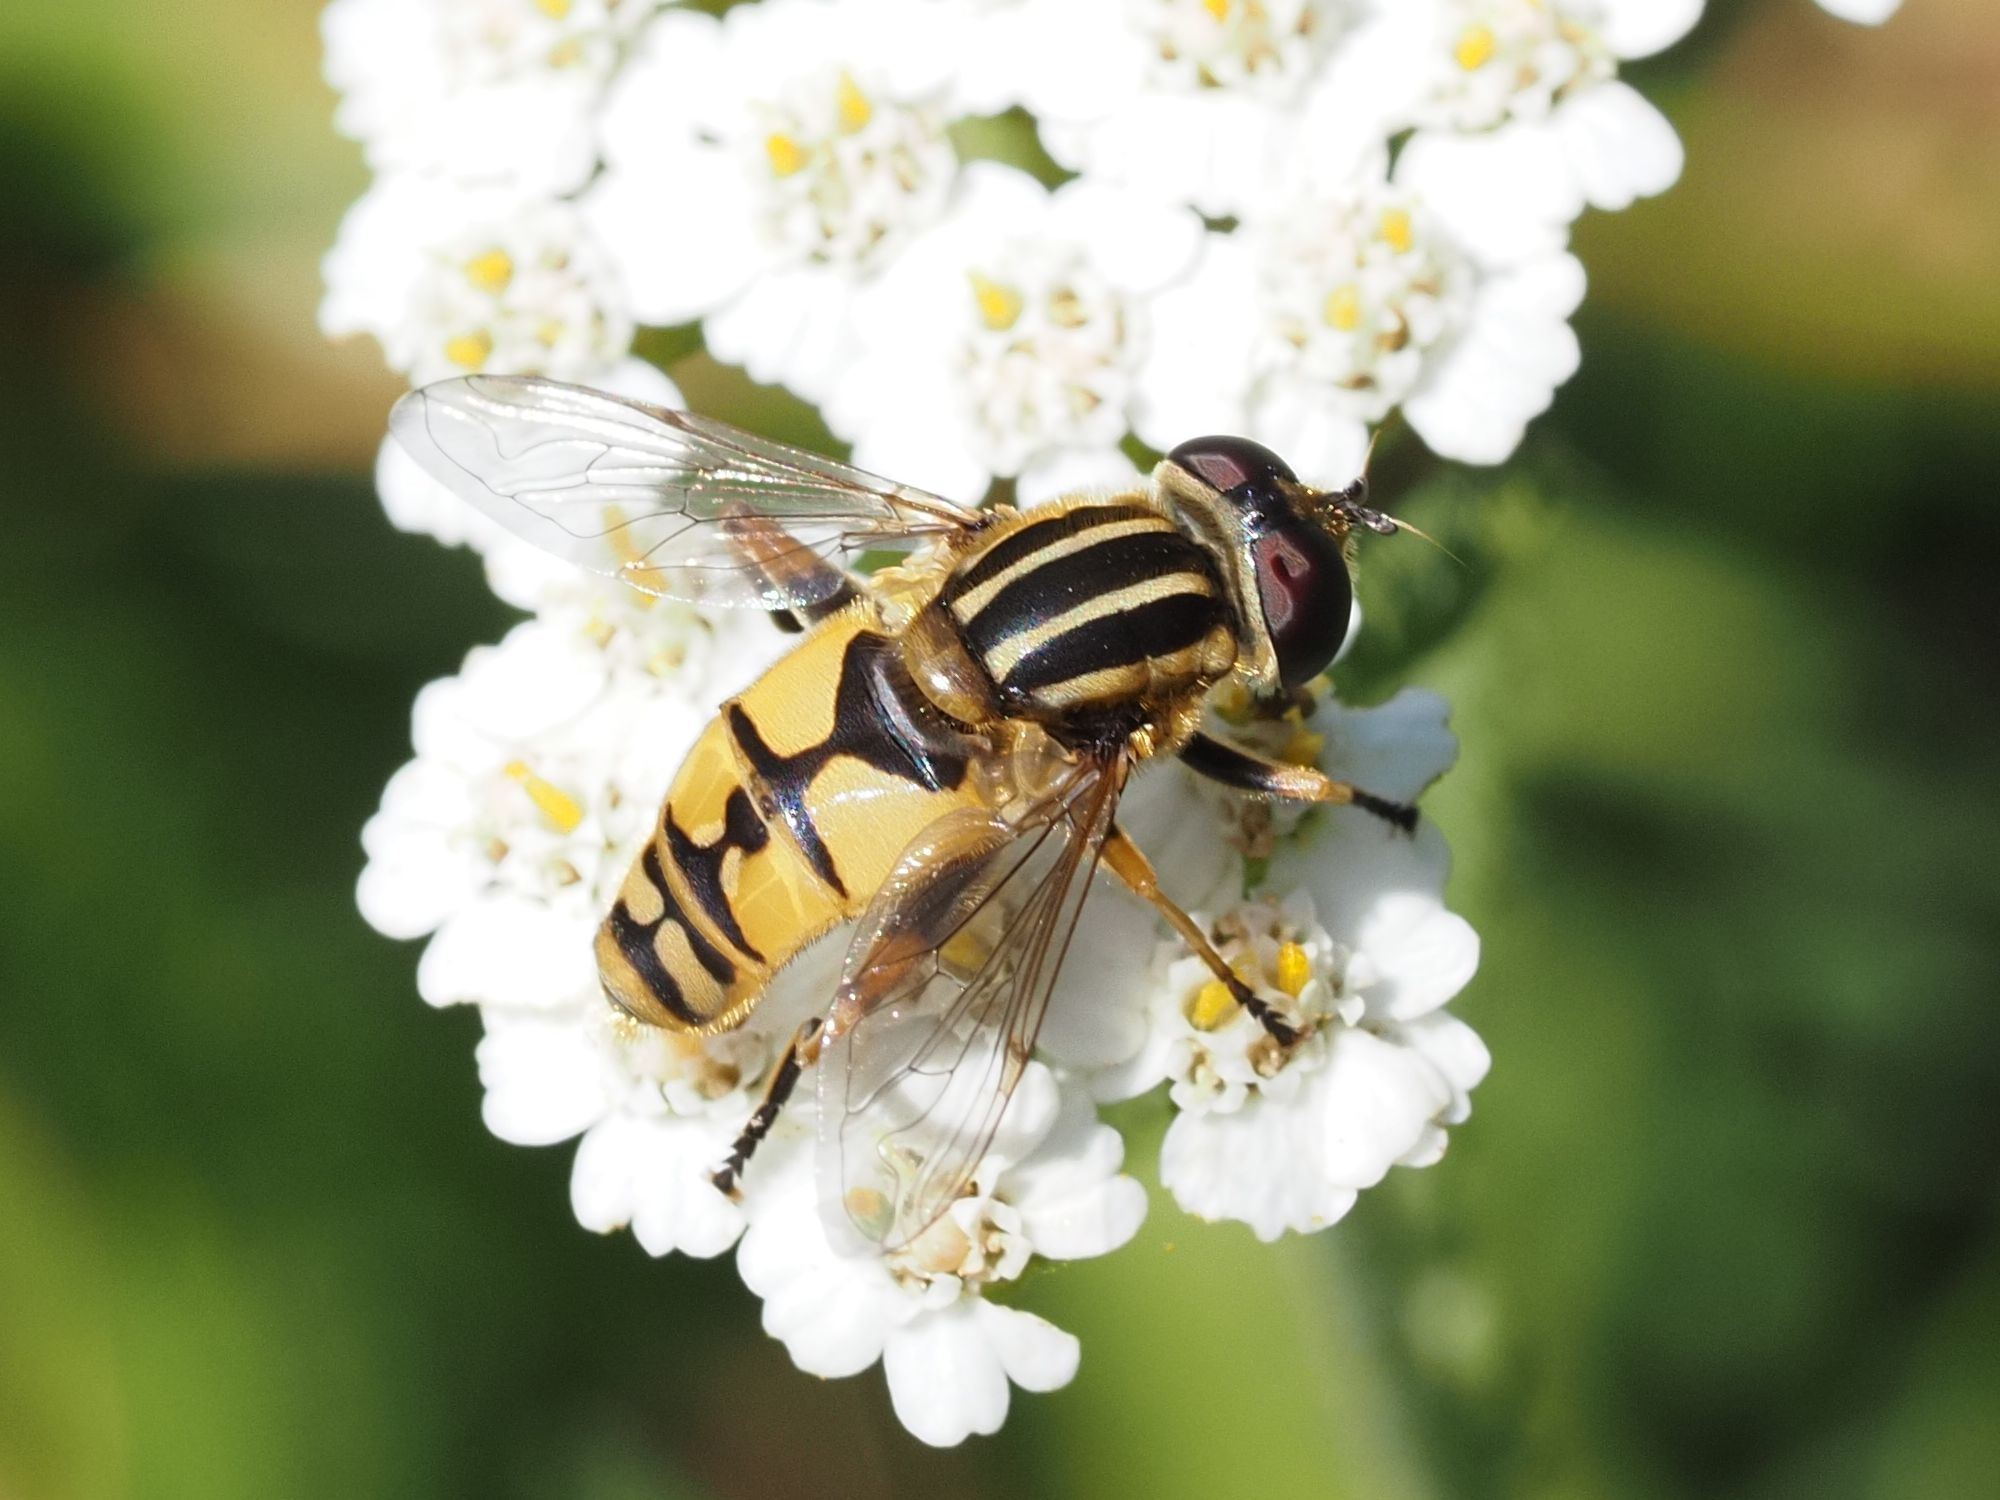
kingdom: Animalia
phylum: Arthropoda
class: Insecta
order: Diptera
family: Syrphidae
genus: Helophilus
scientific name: Helophilus pendulus
